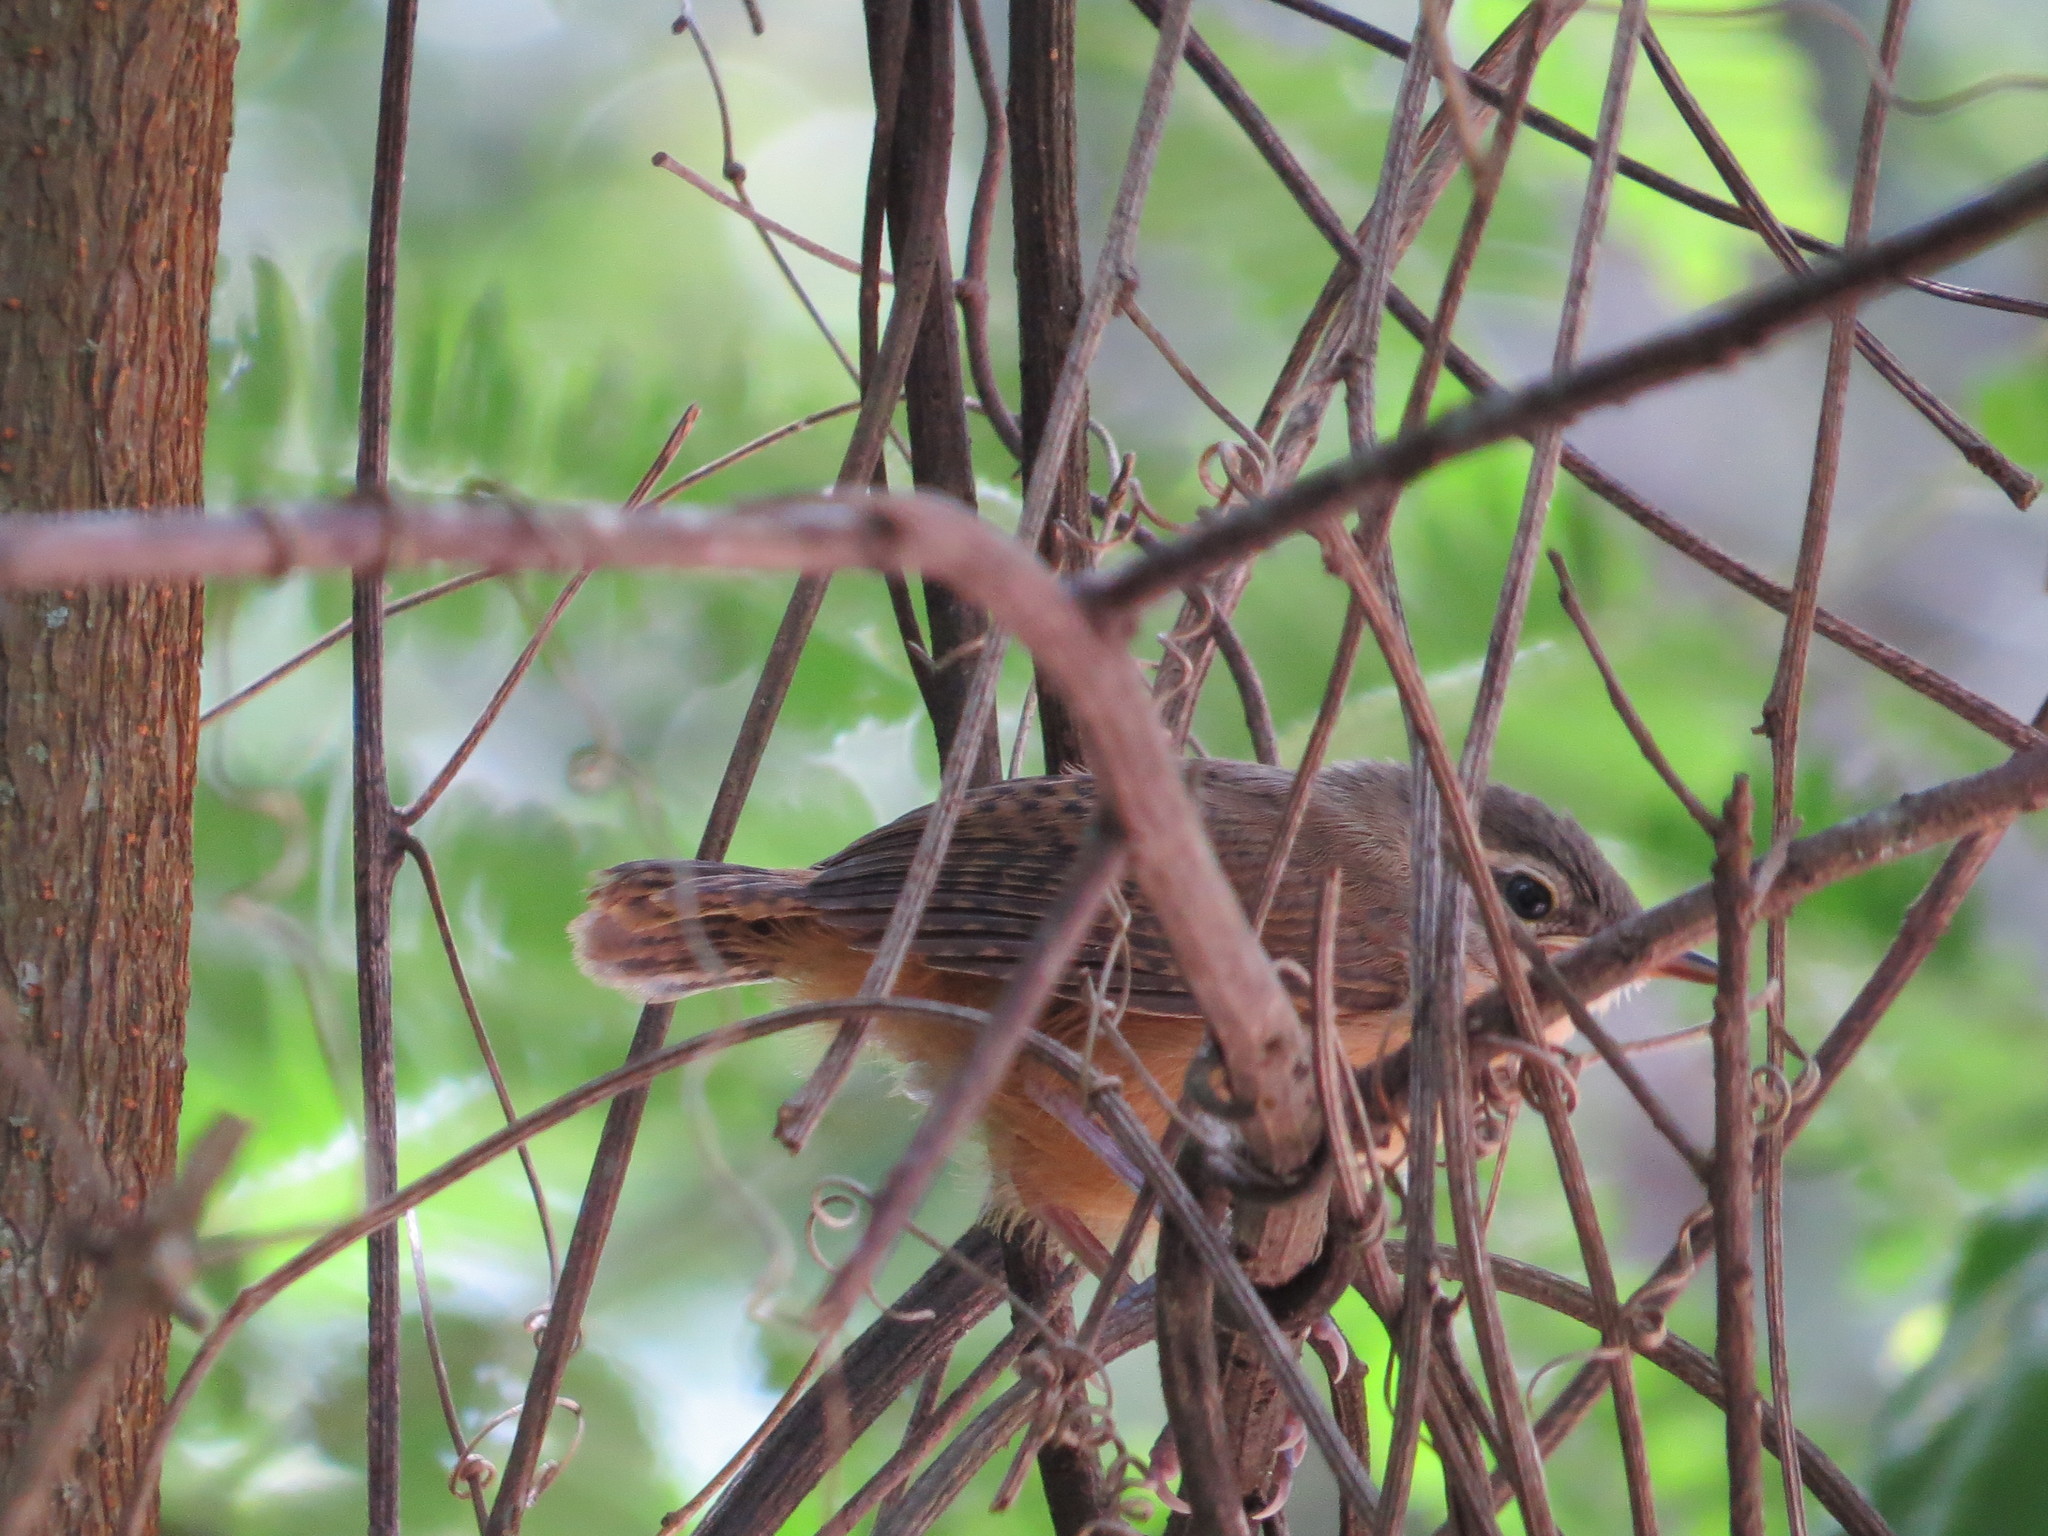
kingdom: Animalia
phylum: Chordata
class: Aves
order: Passeriformes
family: Troglodytidae
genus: Troglodytes
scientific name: Troglodytes aedon
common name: House wren
